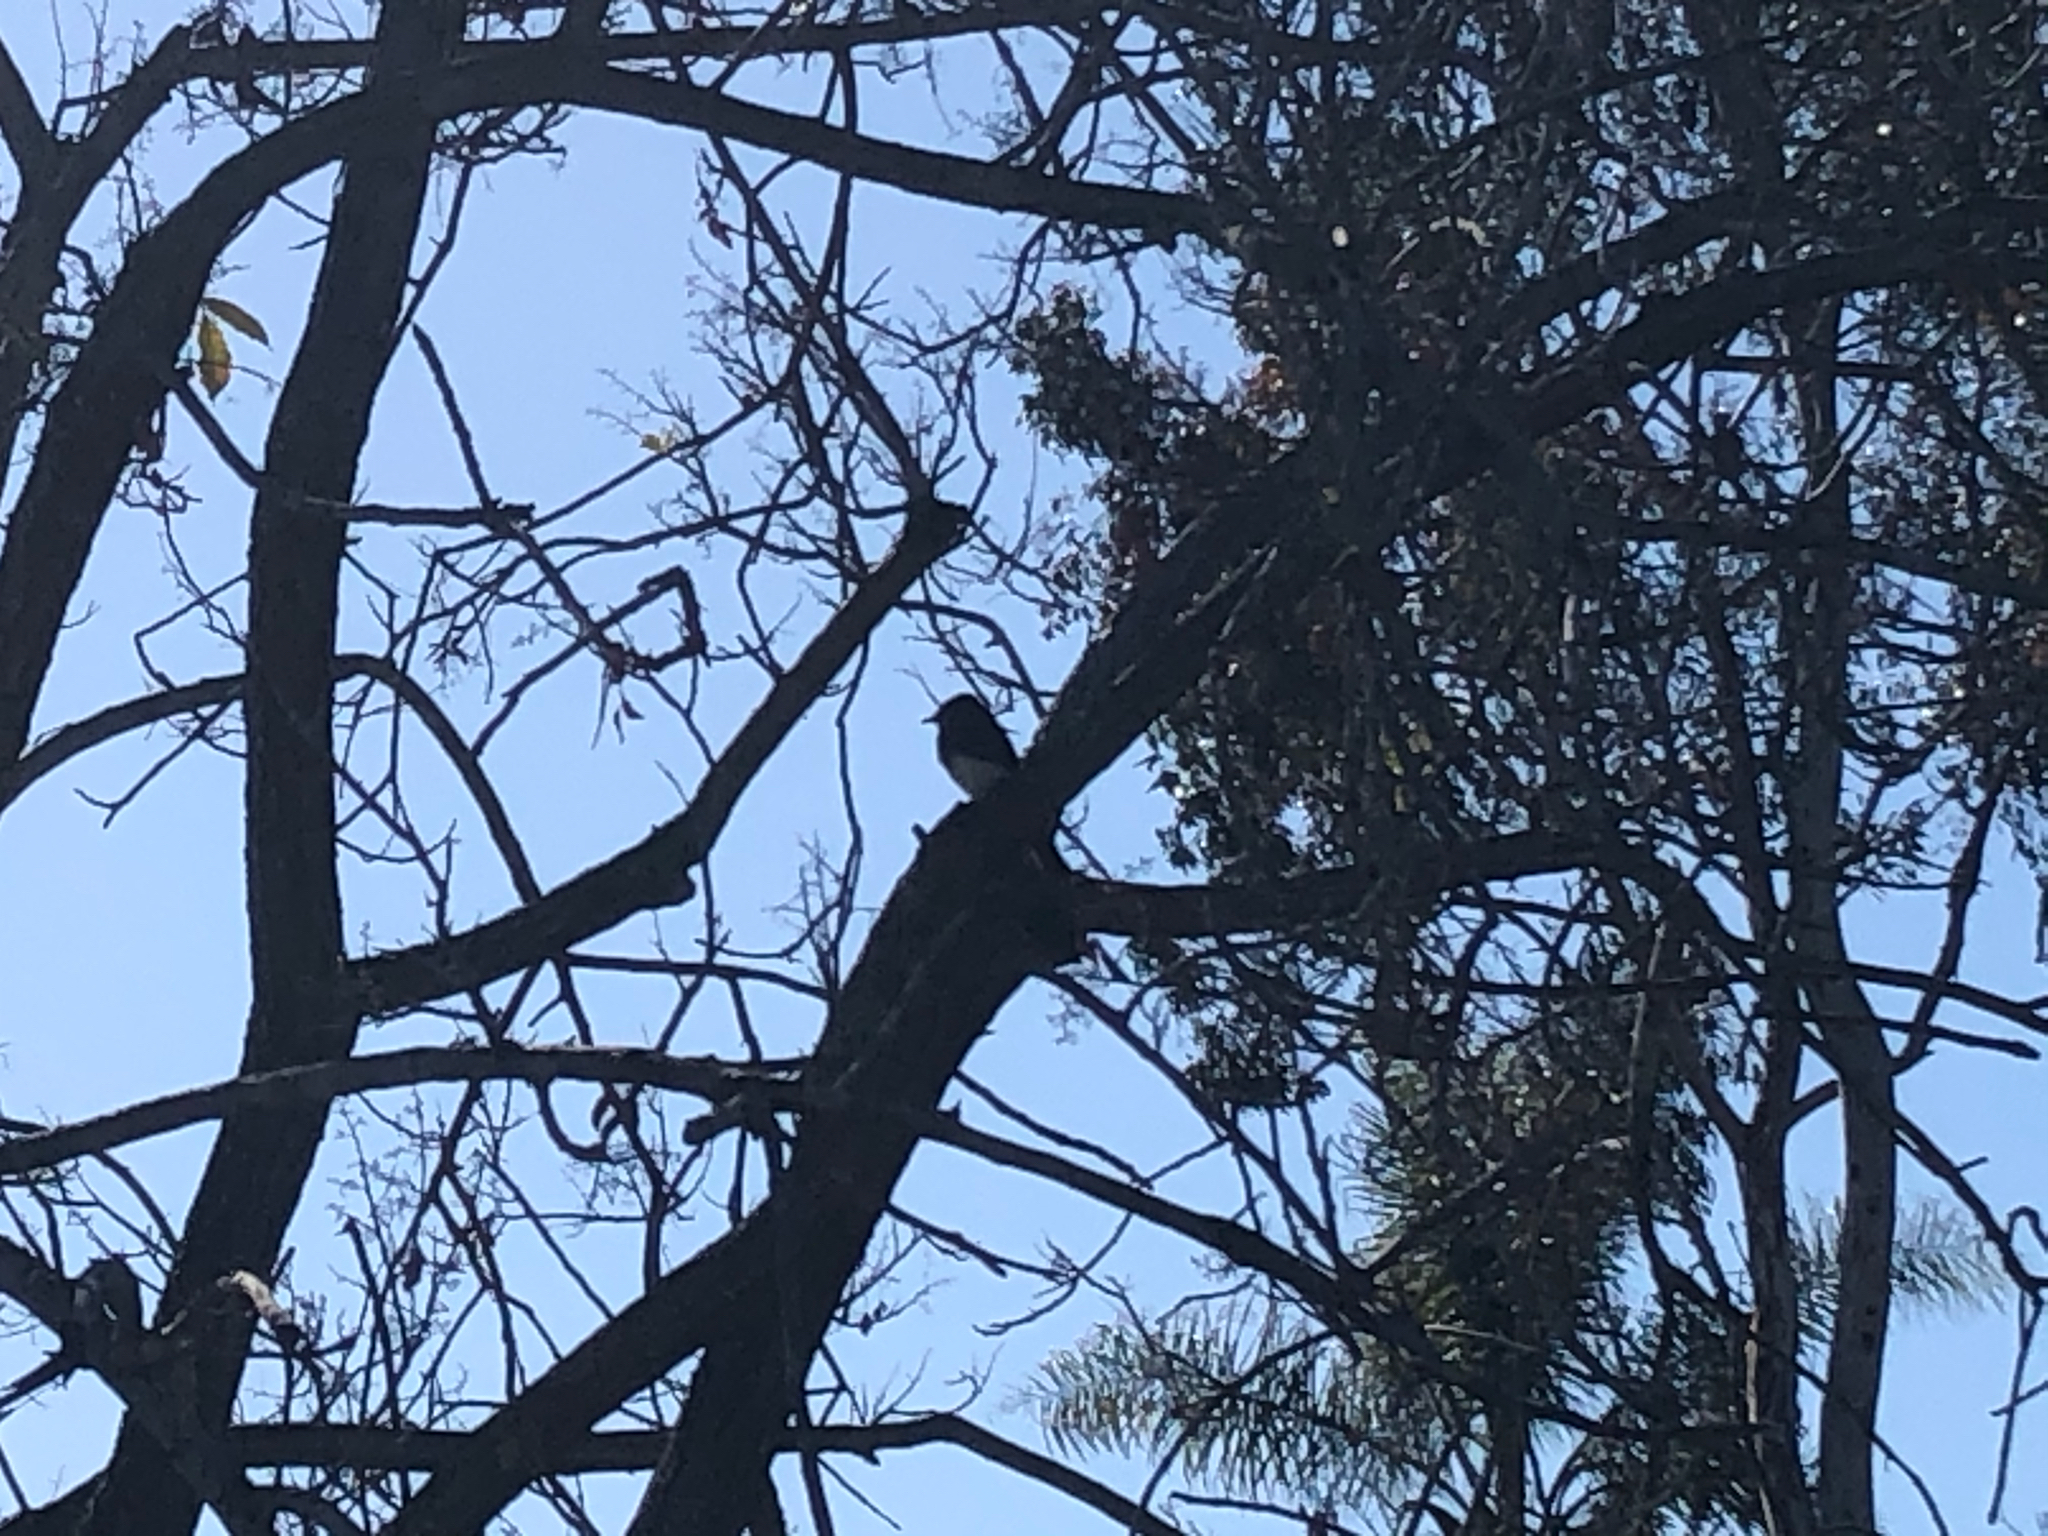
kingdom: Animalia
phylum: Chordata
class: Aves
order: Passeriformes
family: Tyrannidae
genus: Sayornis
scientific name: Sayornis nigricans
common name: Black phoebe
